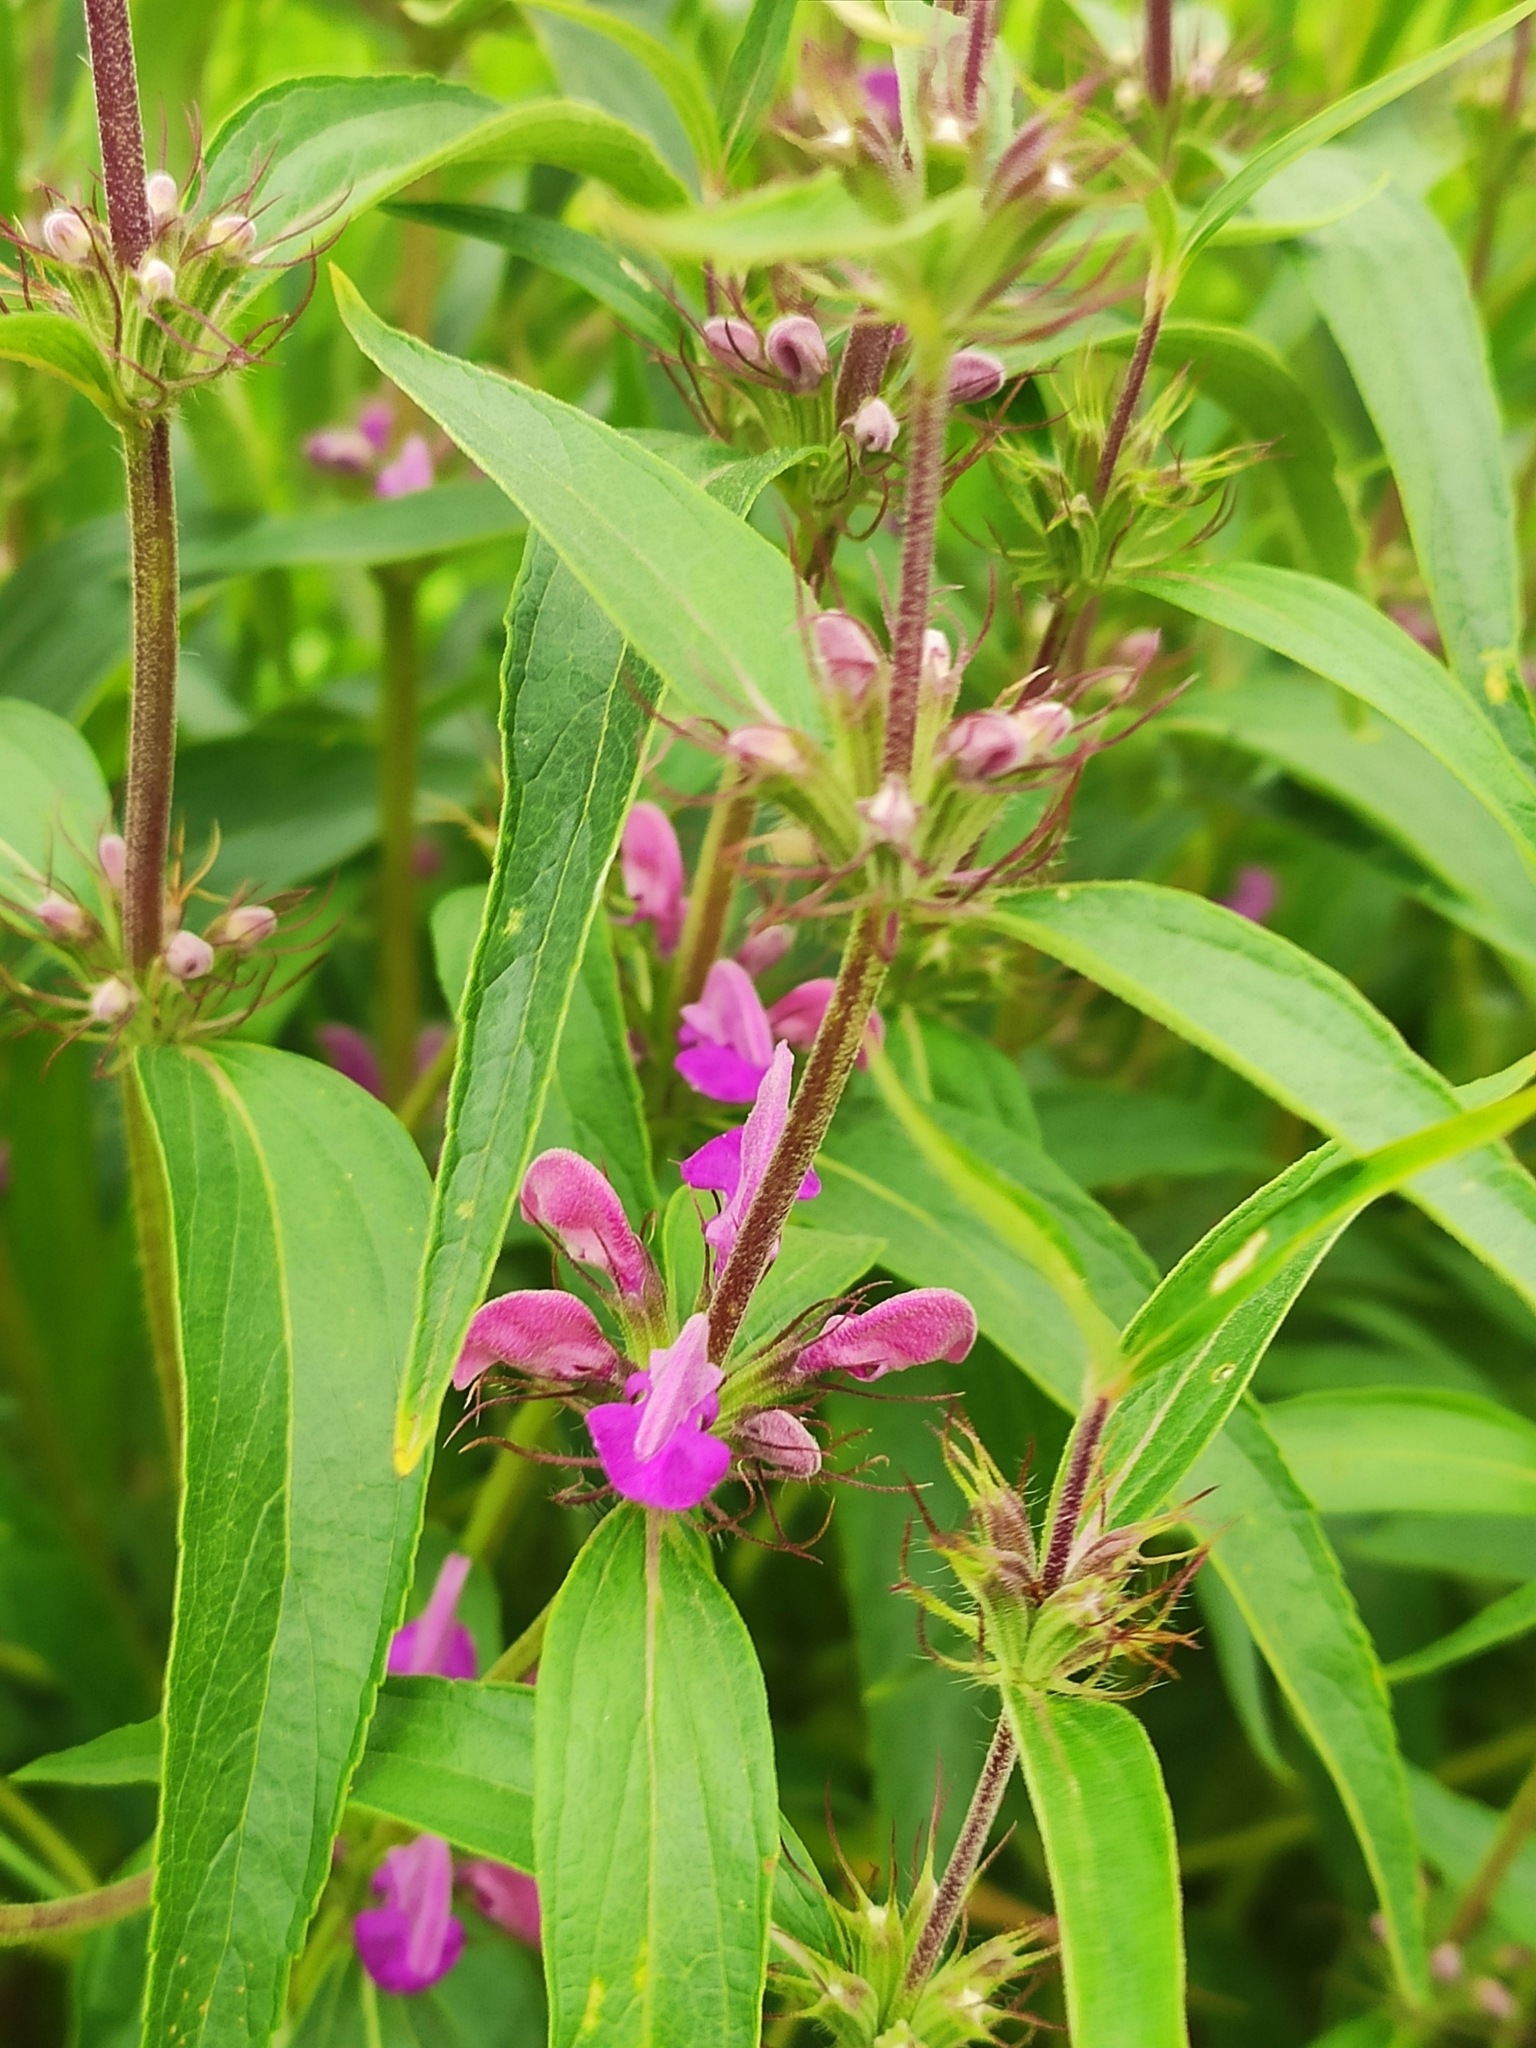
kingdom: Plantae
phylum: Tracheophyta
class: Magnoliopsida
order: Lamiales
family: Lamiaceae
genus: Phlomis
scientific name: Phlomis herba-venti
